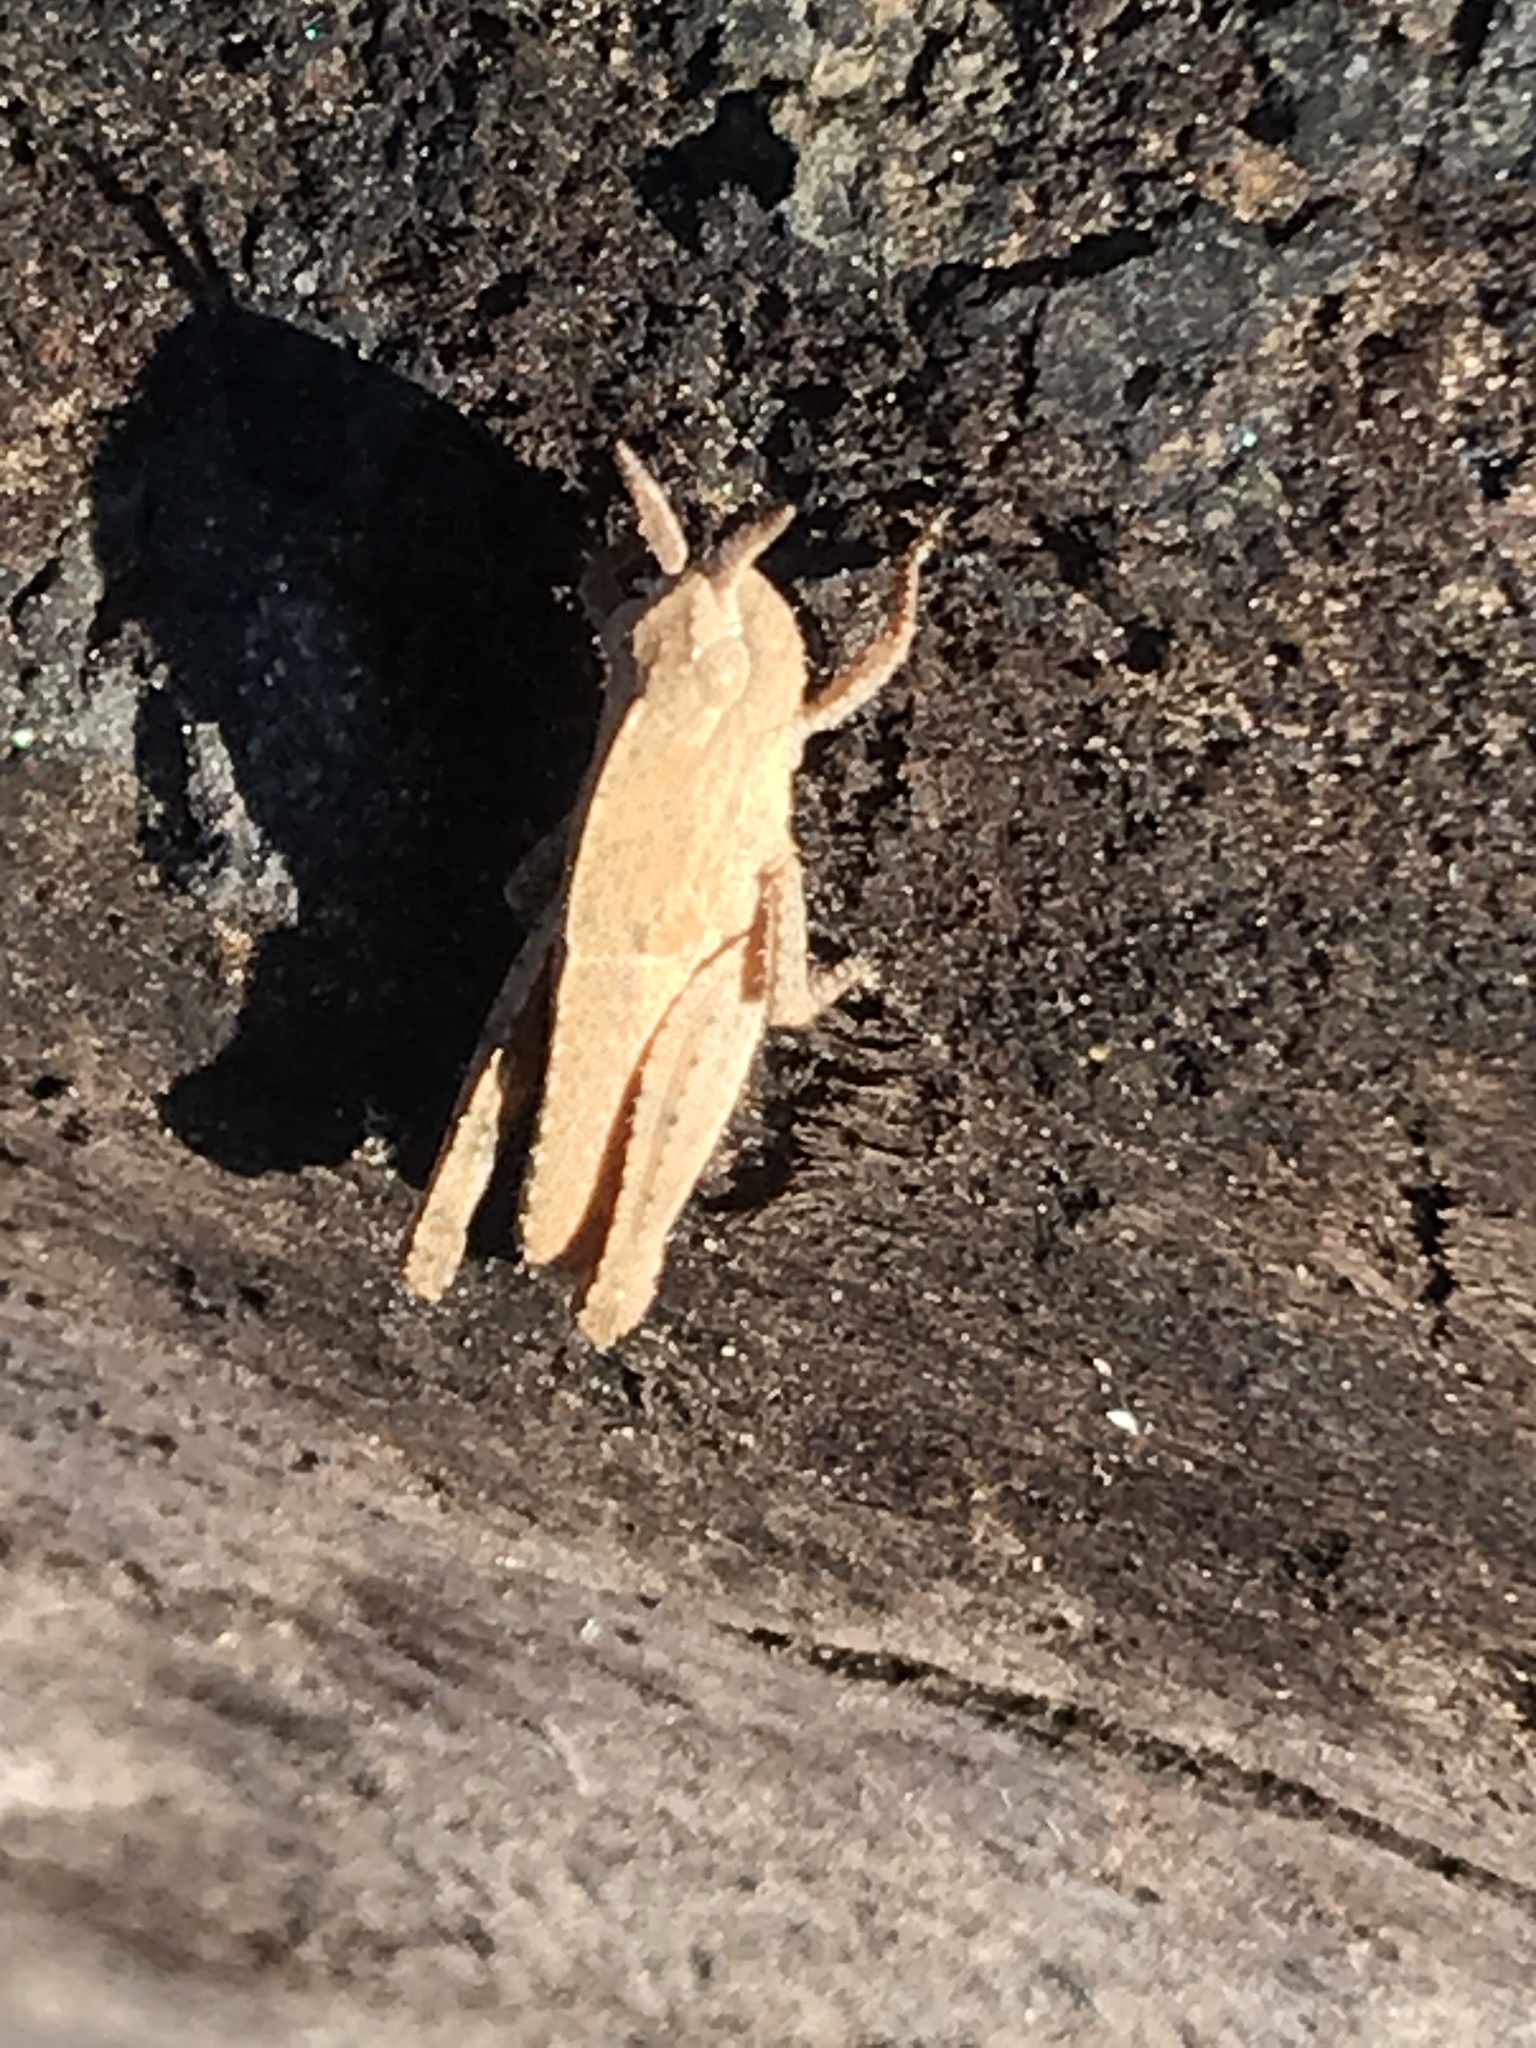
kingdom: Animalia
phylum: Arthropoda
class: Insecta
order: Orthoptera
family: Acrididae
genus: Chortophaga
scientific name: Chortophaga viridifasciata
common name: Green-striped grasshopper
